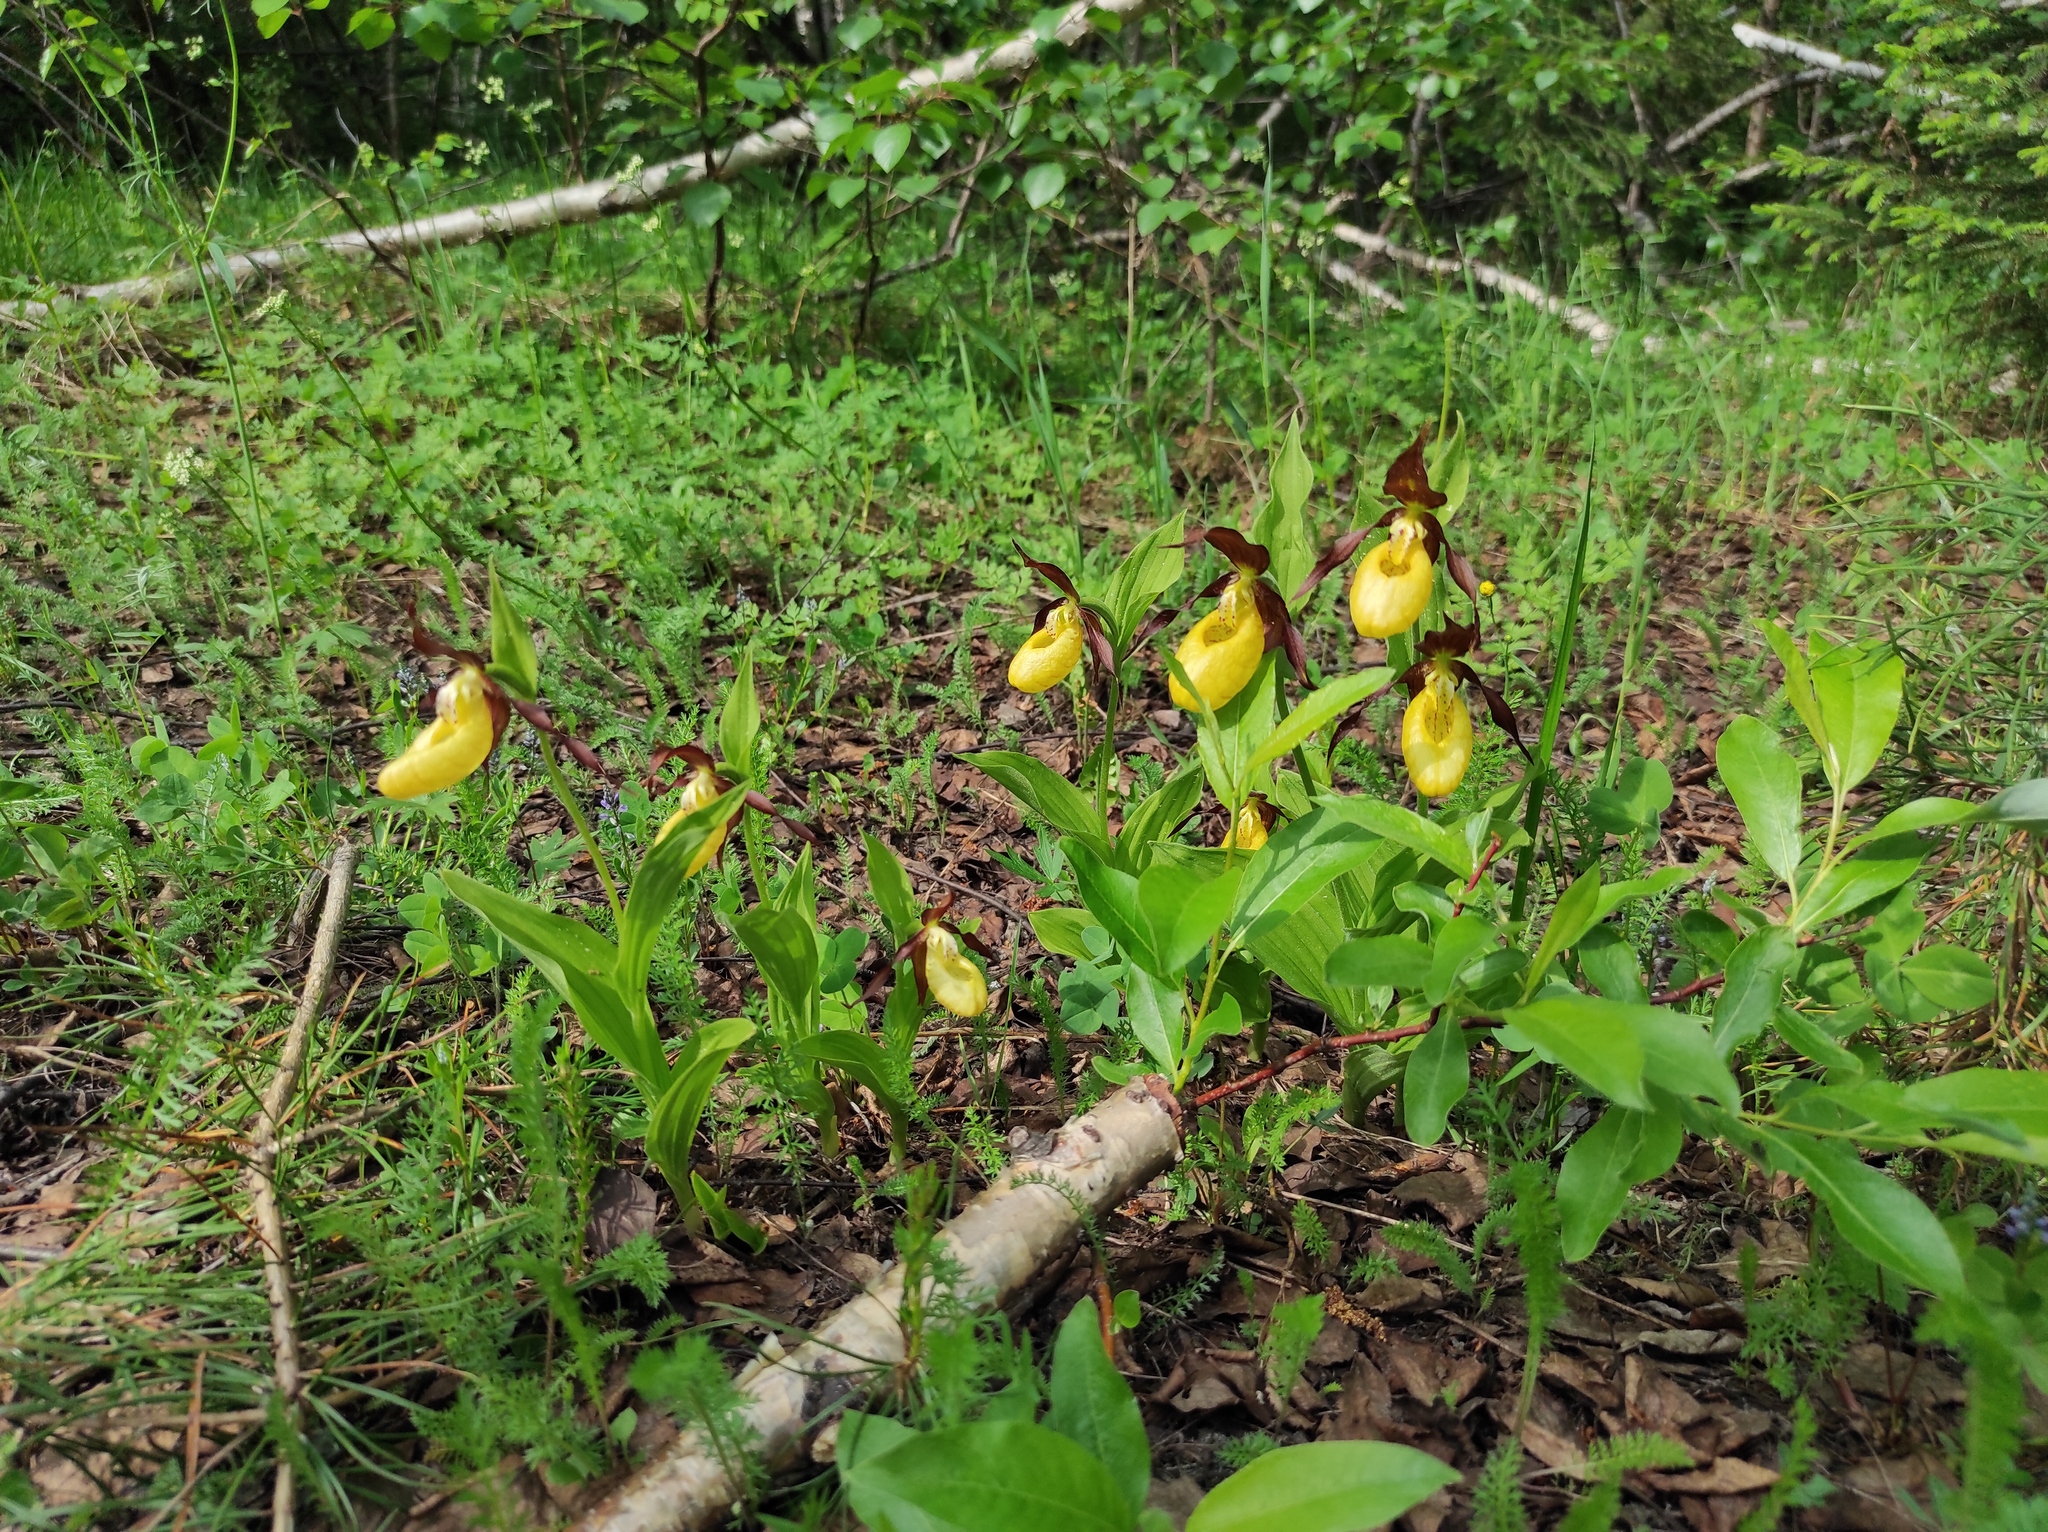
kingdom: Plantae
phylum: Tracheophyta
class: Liliopsida
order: Asparagales
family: Orchidaceae
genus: Cypripedium
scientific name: Cypripedium calceolus
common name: Lady's-slipper
